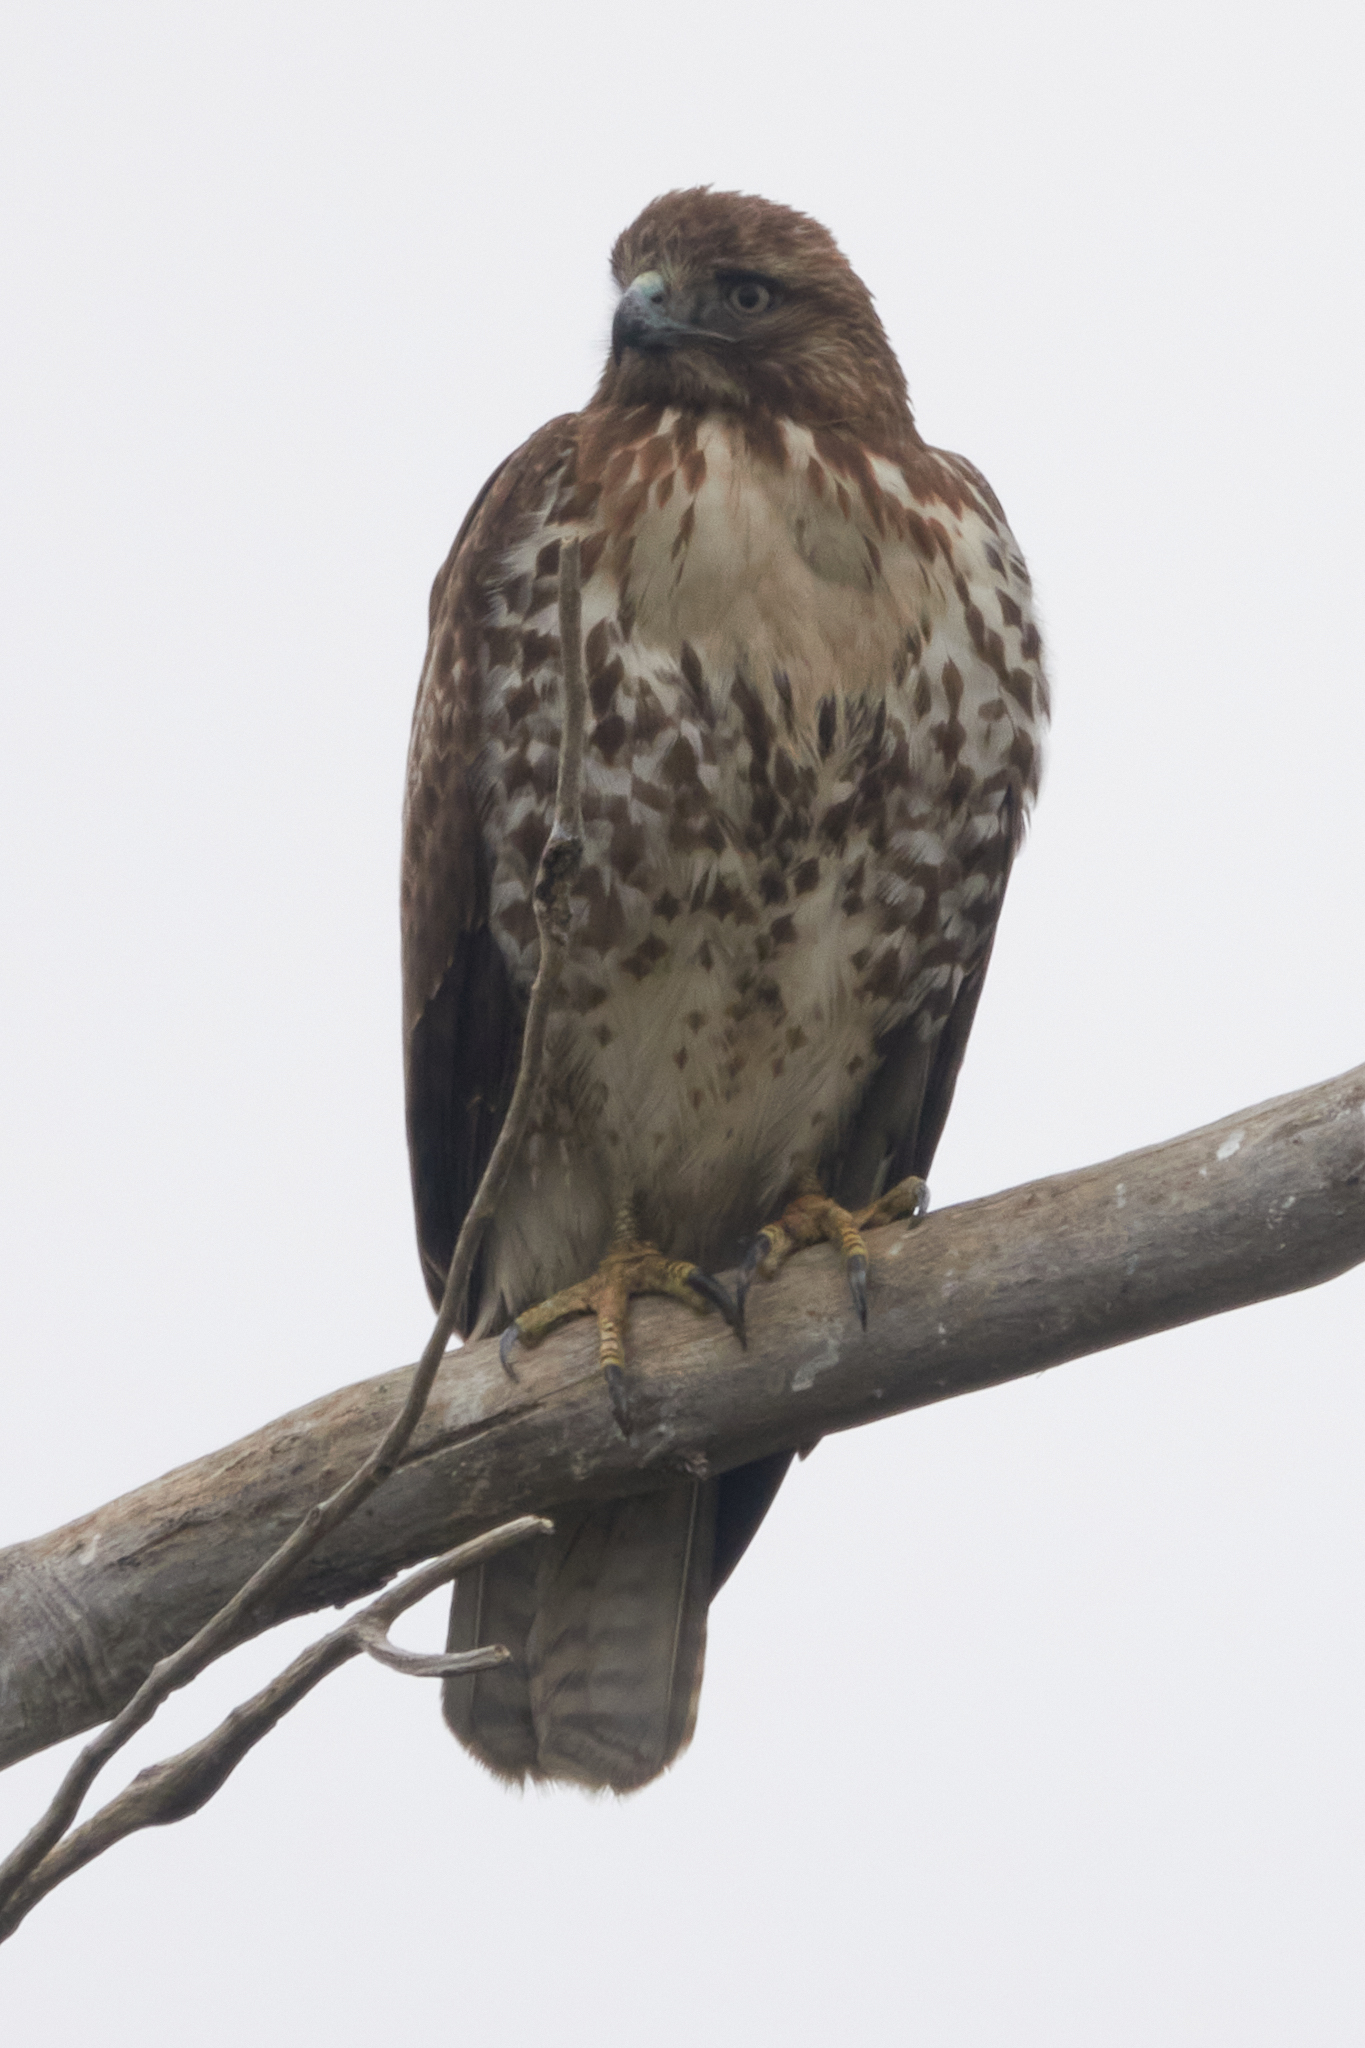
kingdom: Animalia
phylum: Chordata
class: Aves
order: Accipitriformes
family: Accipitridae
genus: Buteo
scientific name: Buteo jamaicensis
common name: Red-tailed hawk
